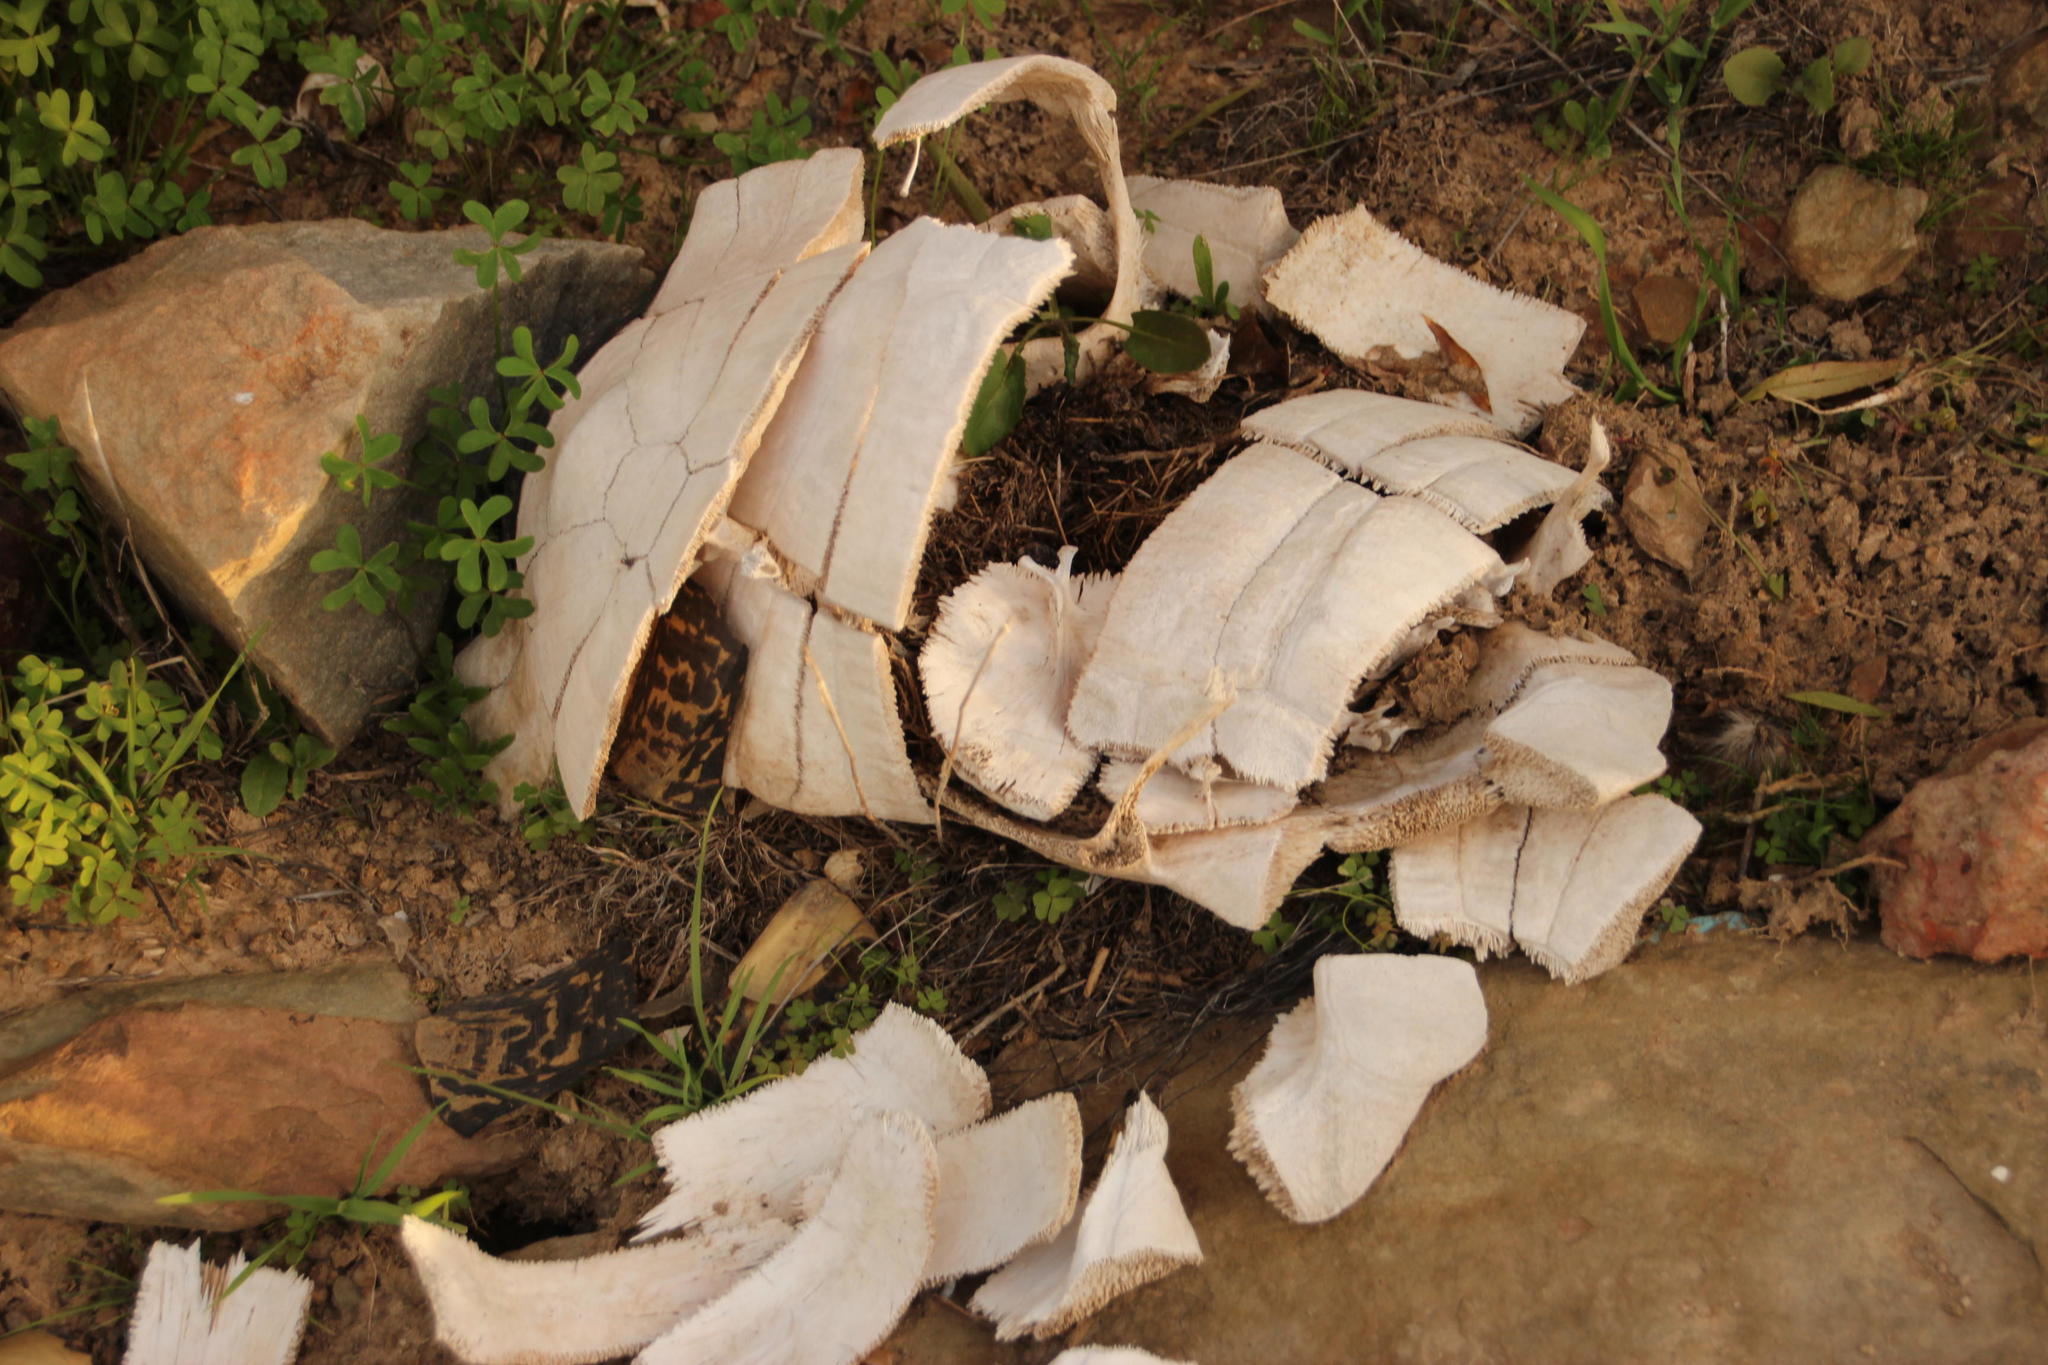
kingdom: Animalia
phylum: Chordata
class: Testudines
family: Testudinidae
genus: Stigmochelys
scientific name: Stigmochelys pardalis
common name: Leopard tortoise
